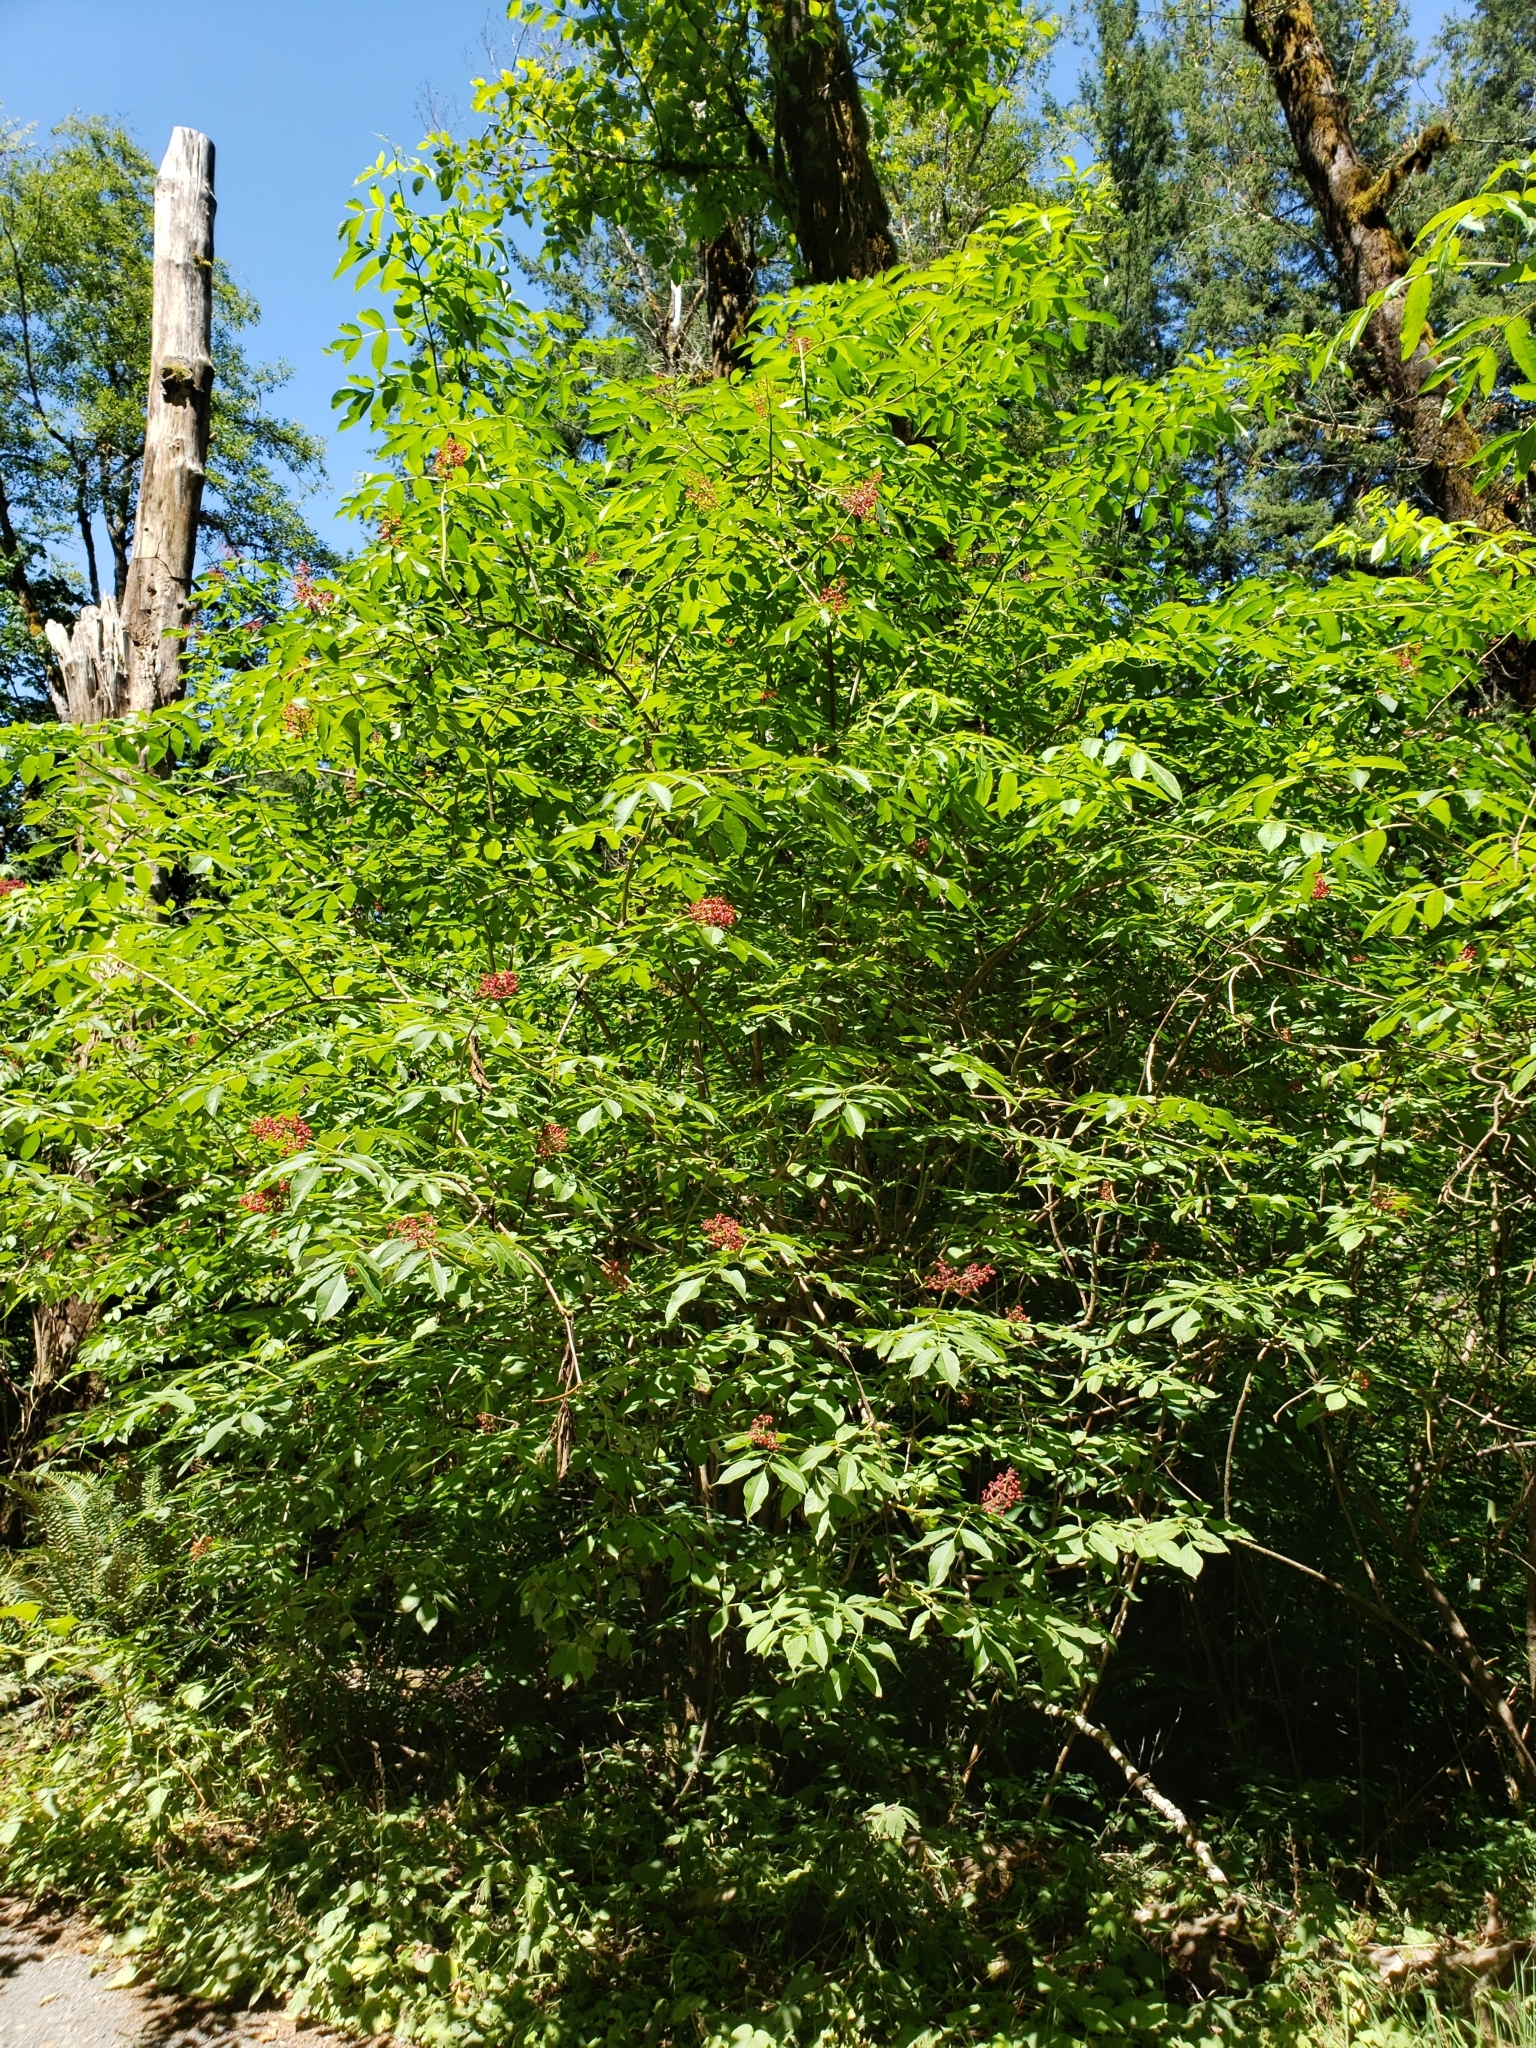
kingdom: Plantae
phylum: Tracheophyta
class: Magnoliopsida
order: Dipsacales
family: Viburnaceae
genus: Sambucus
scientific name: Sambucus racemosa
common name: Red-berried elder
